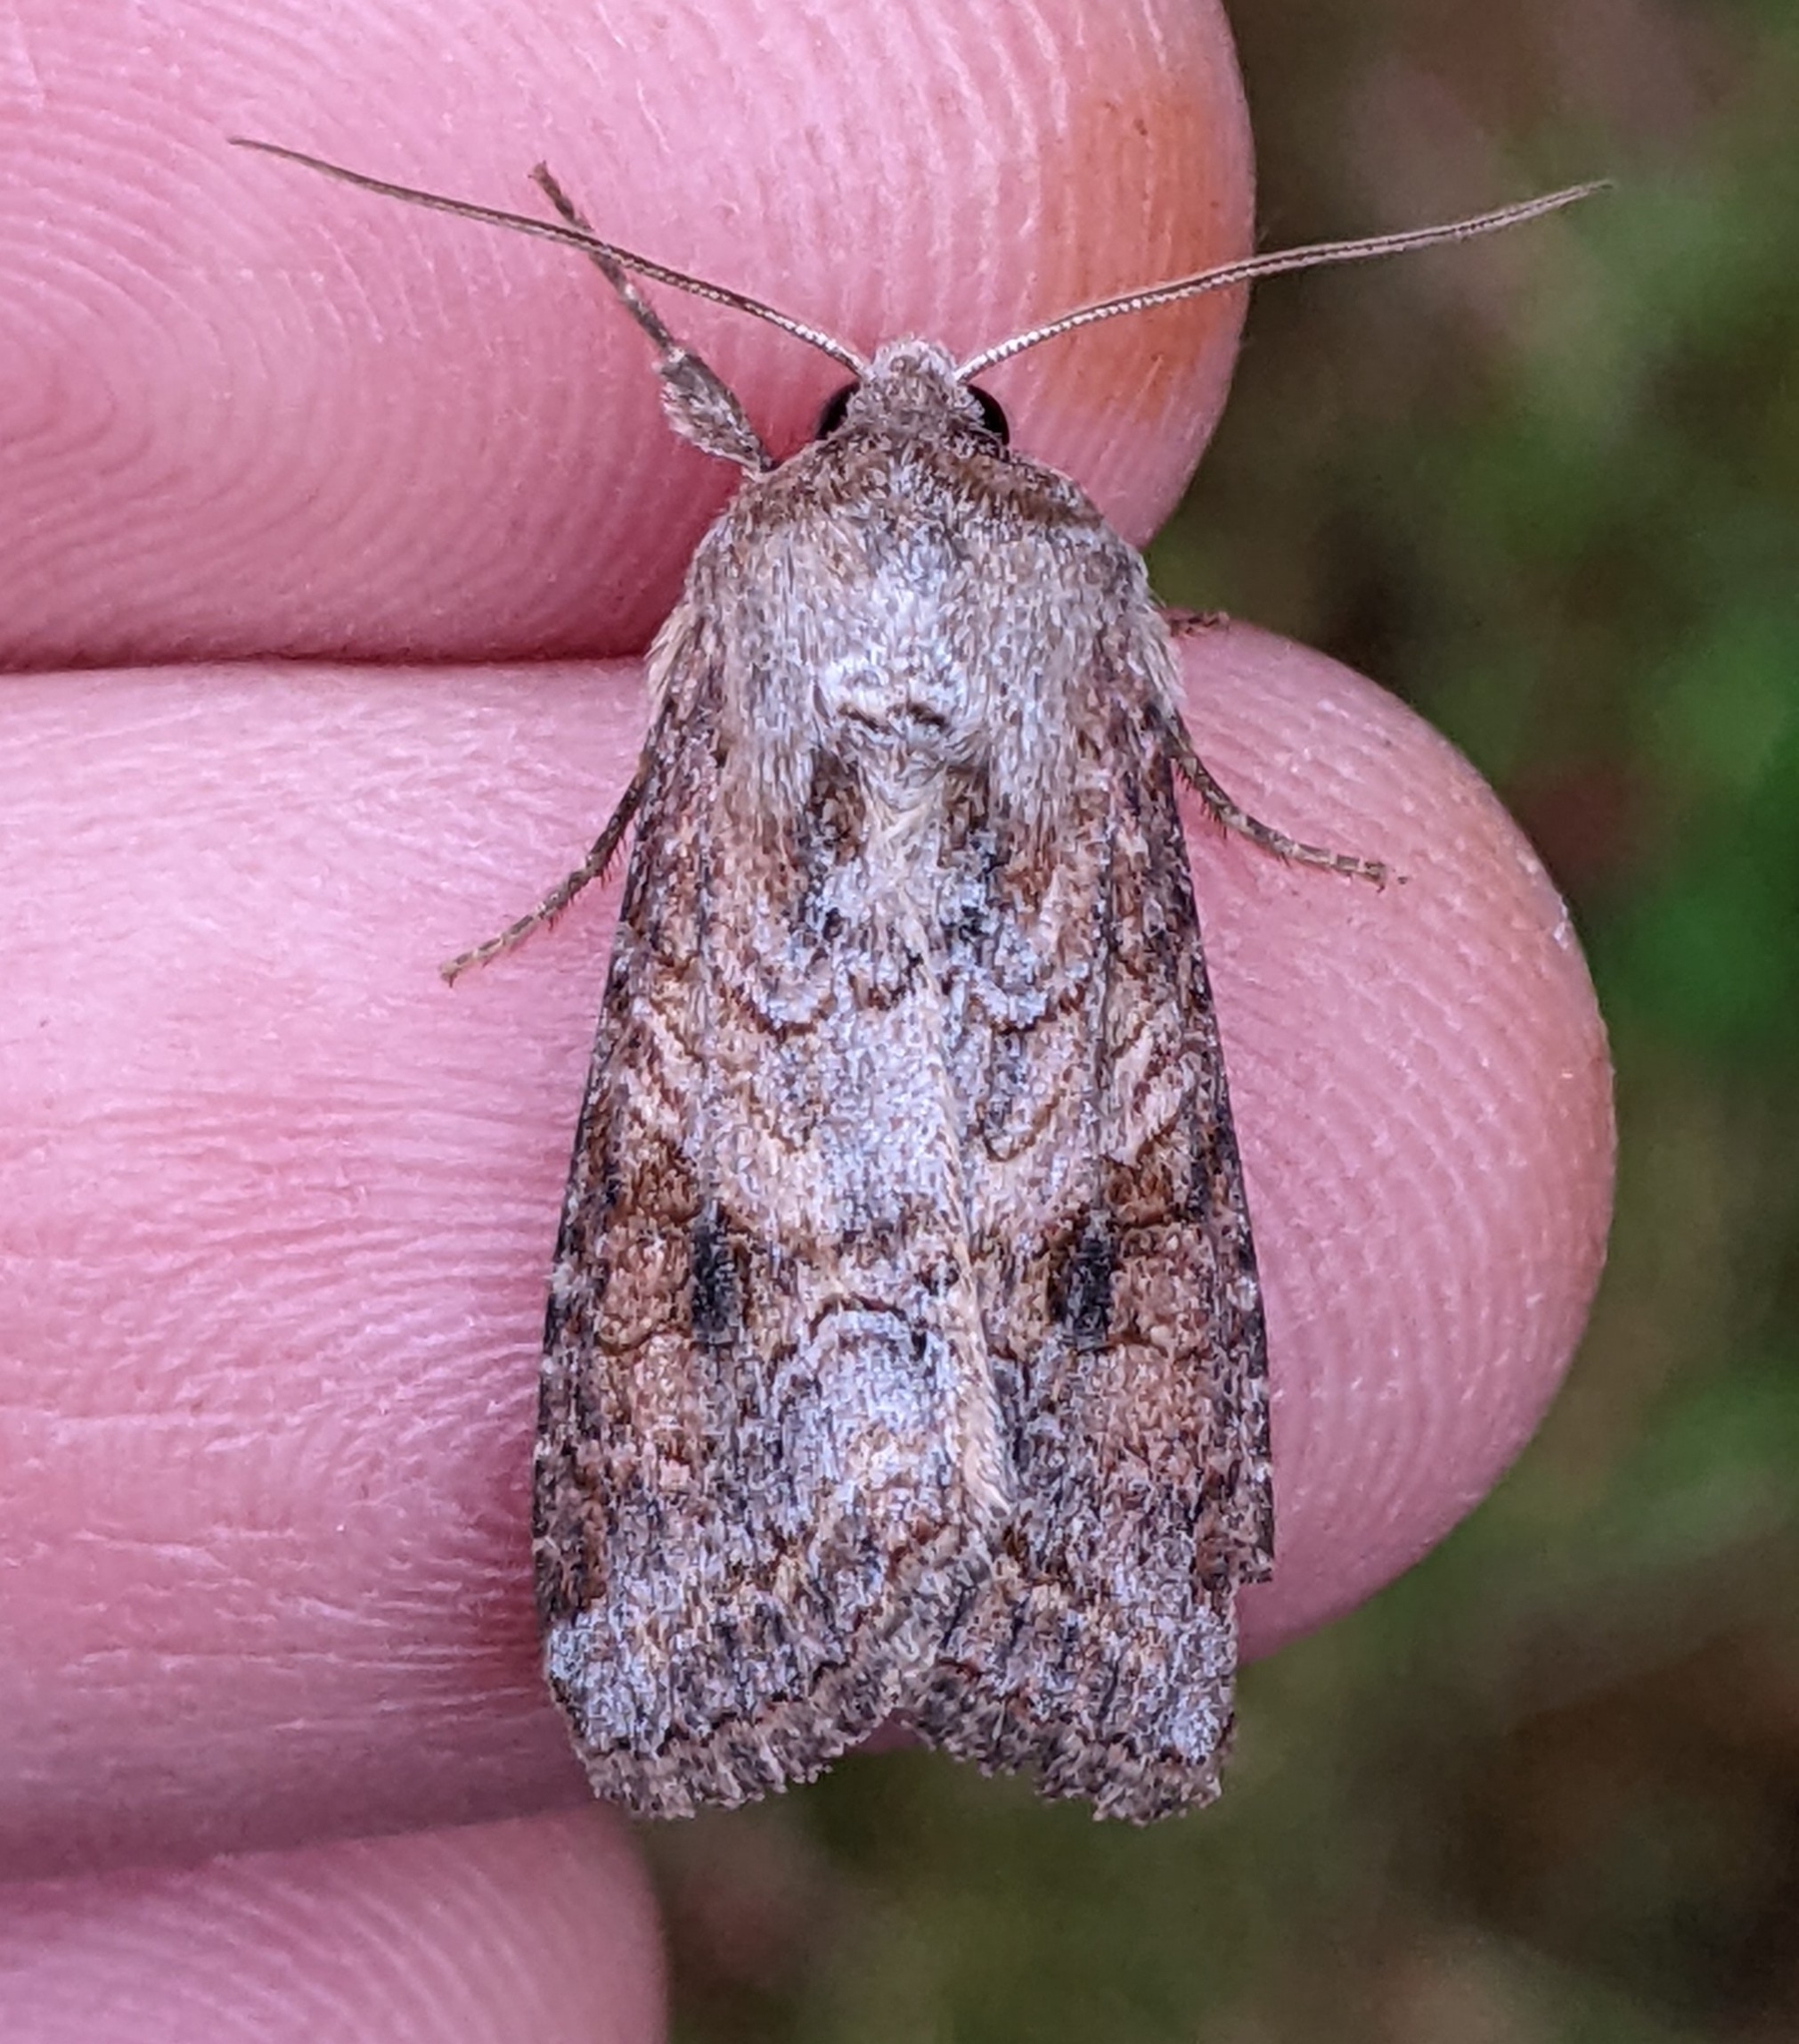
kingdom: Animalia
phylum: Arthropoda
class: Insecta
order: Lepidoptera
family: Noctuidae
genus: Trichordestra
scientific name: Trichordestra lilacina
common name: Aster cutworm
